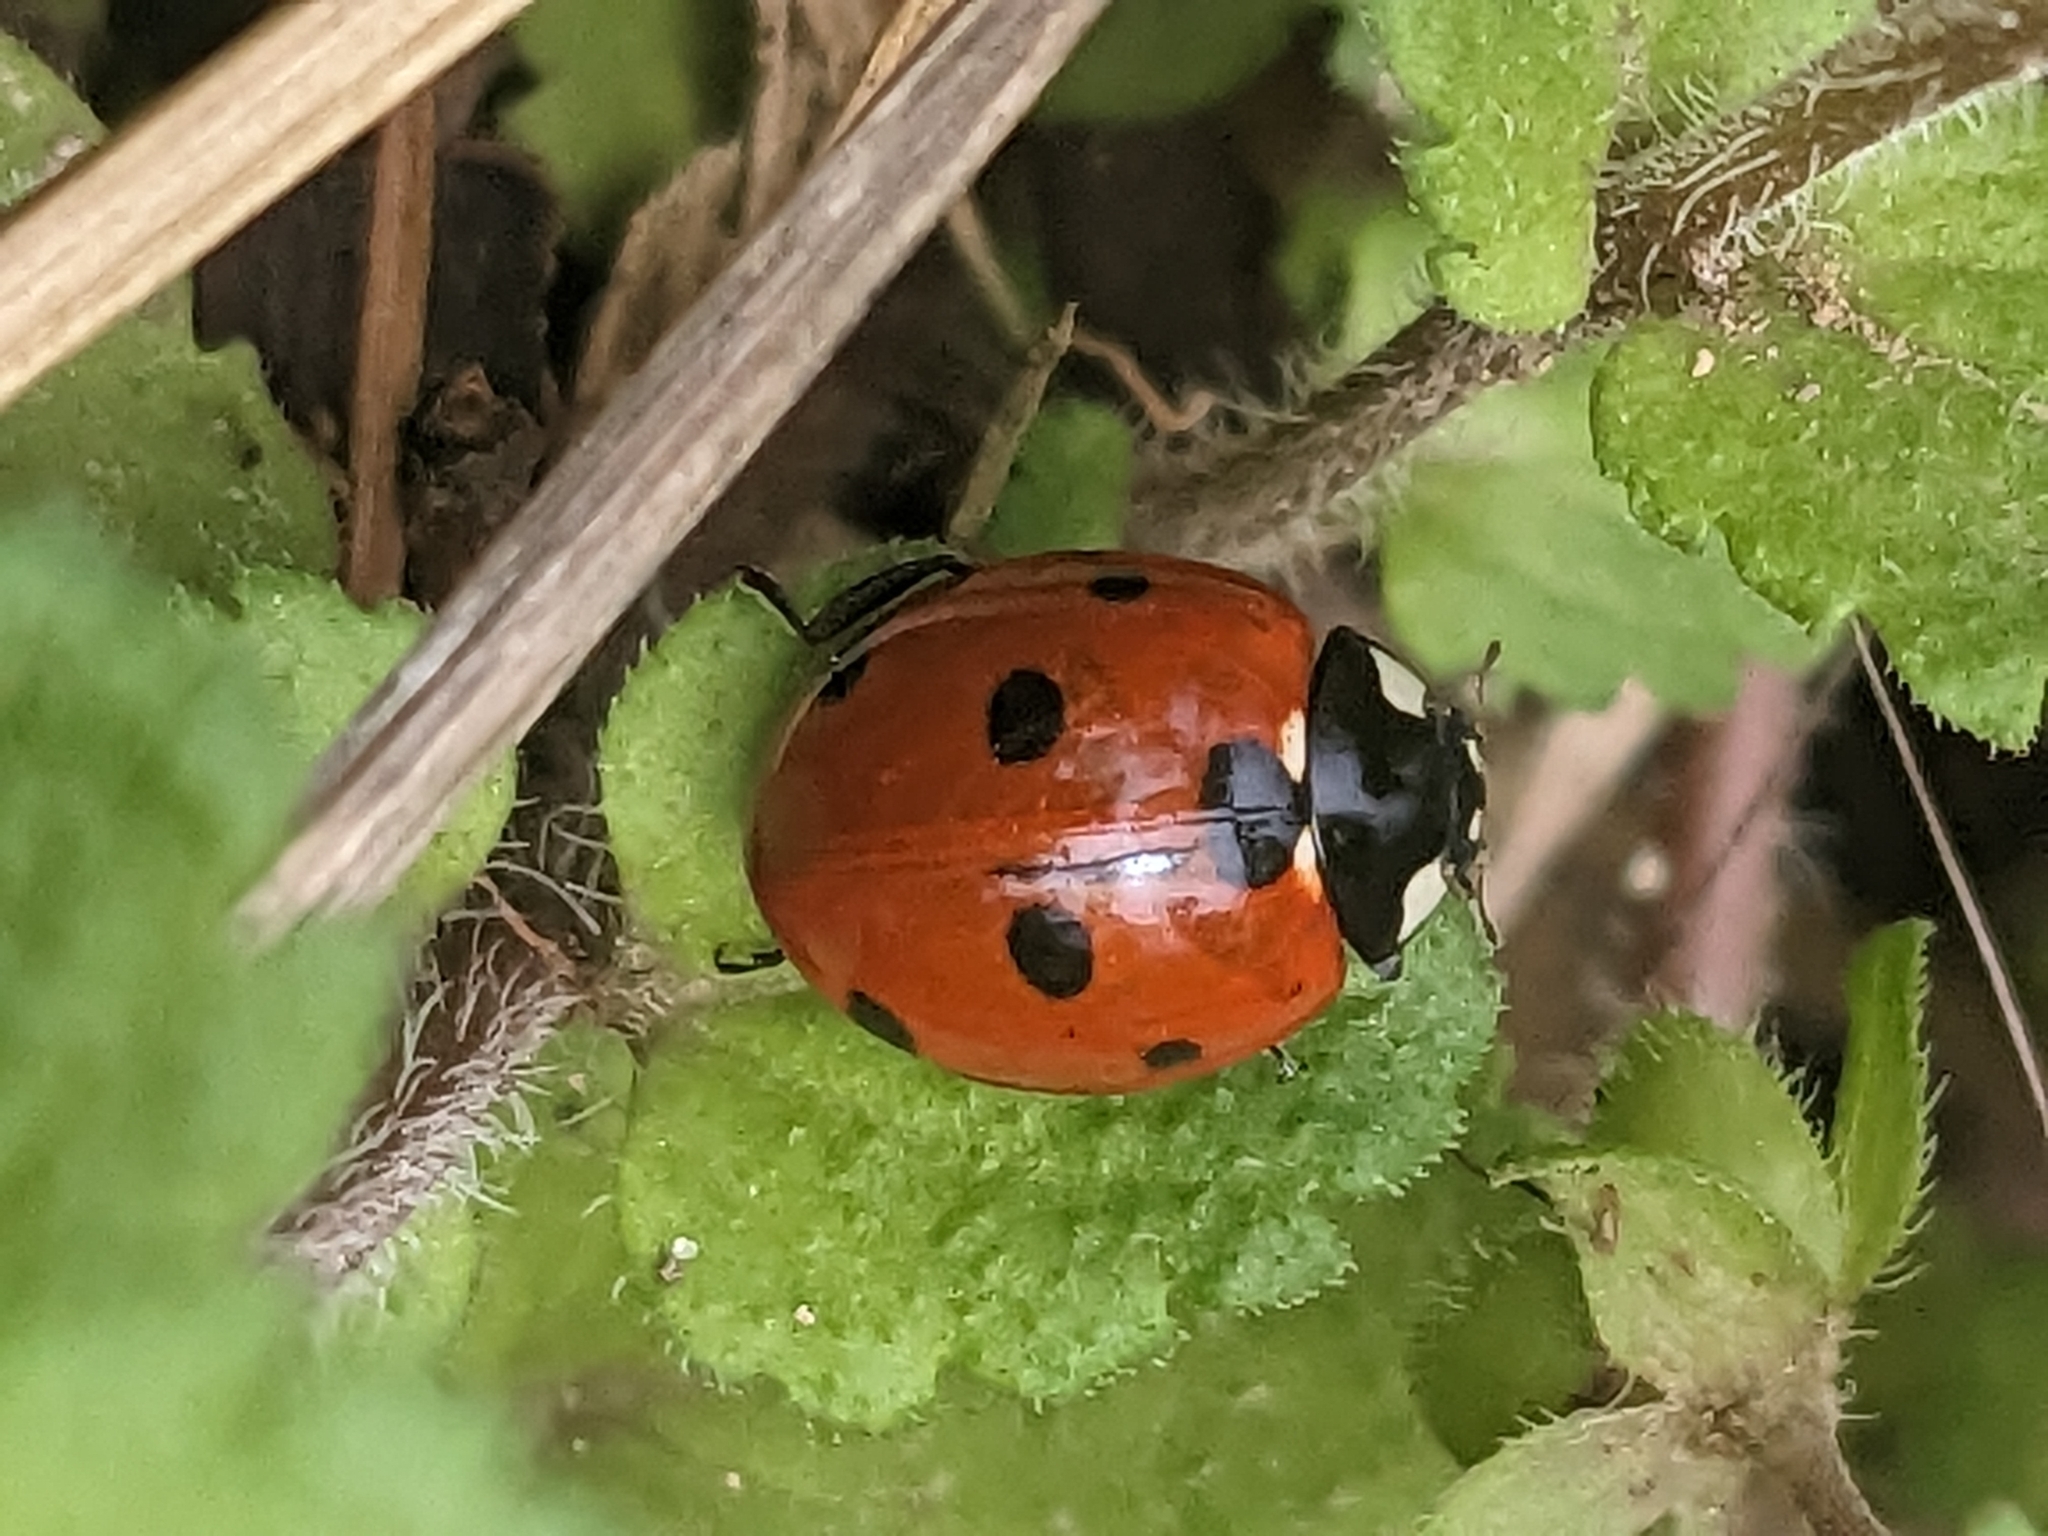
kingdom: Animalia
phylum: Arthropoda
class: Insecta
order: Coleoptera
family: Coccinellidae
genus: Coccinella
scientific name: Coccinella septempunctata
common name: Sevenspotted lady beetle
